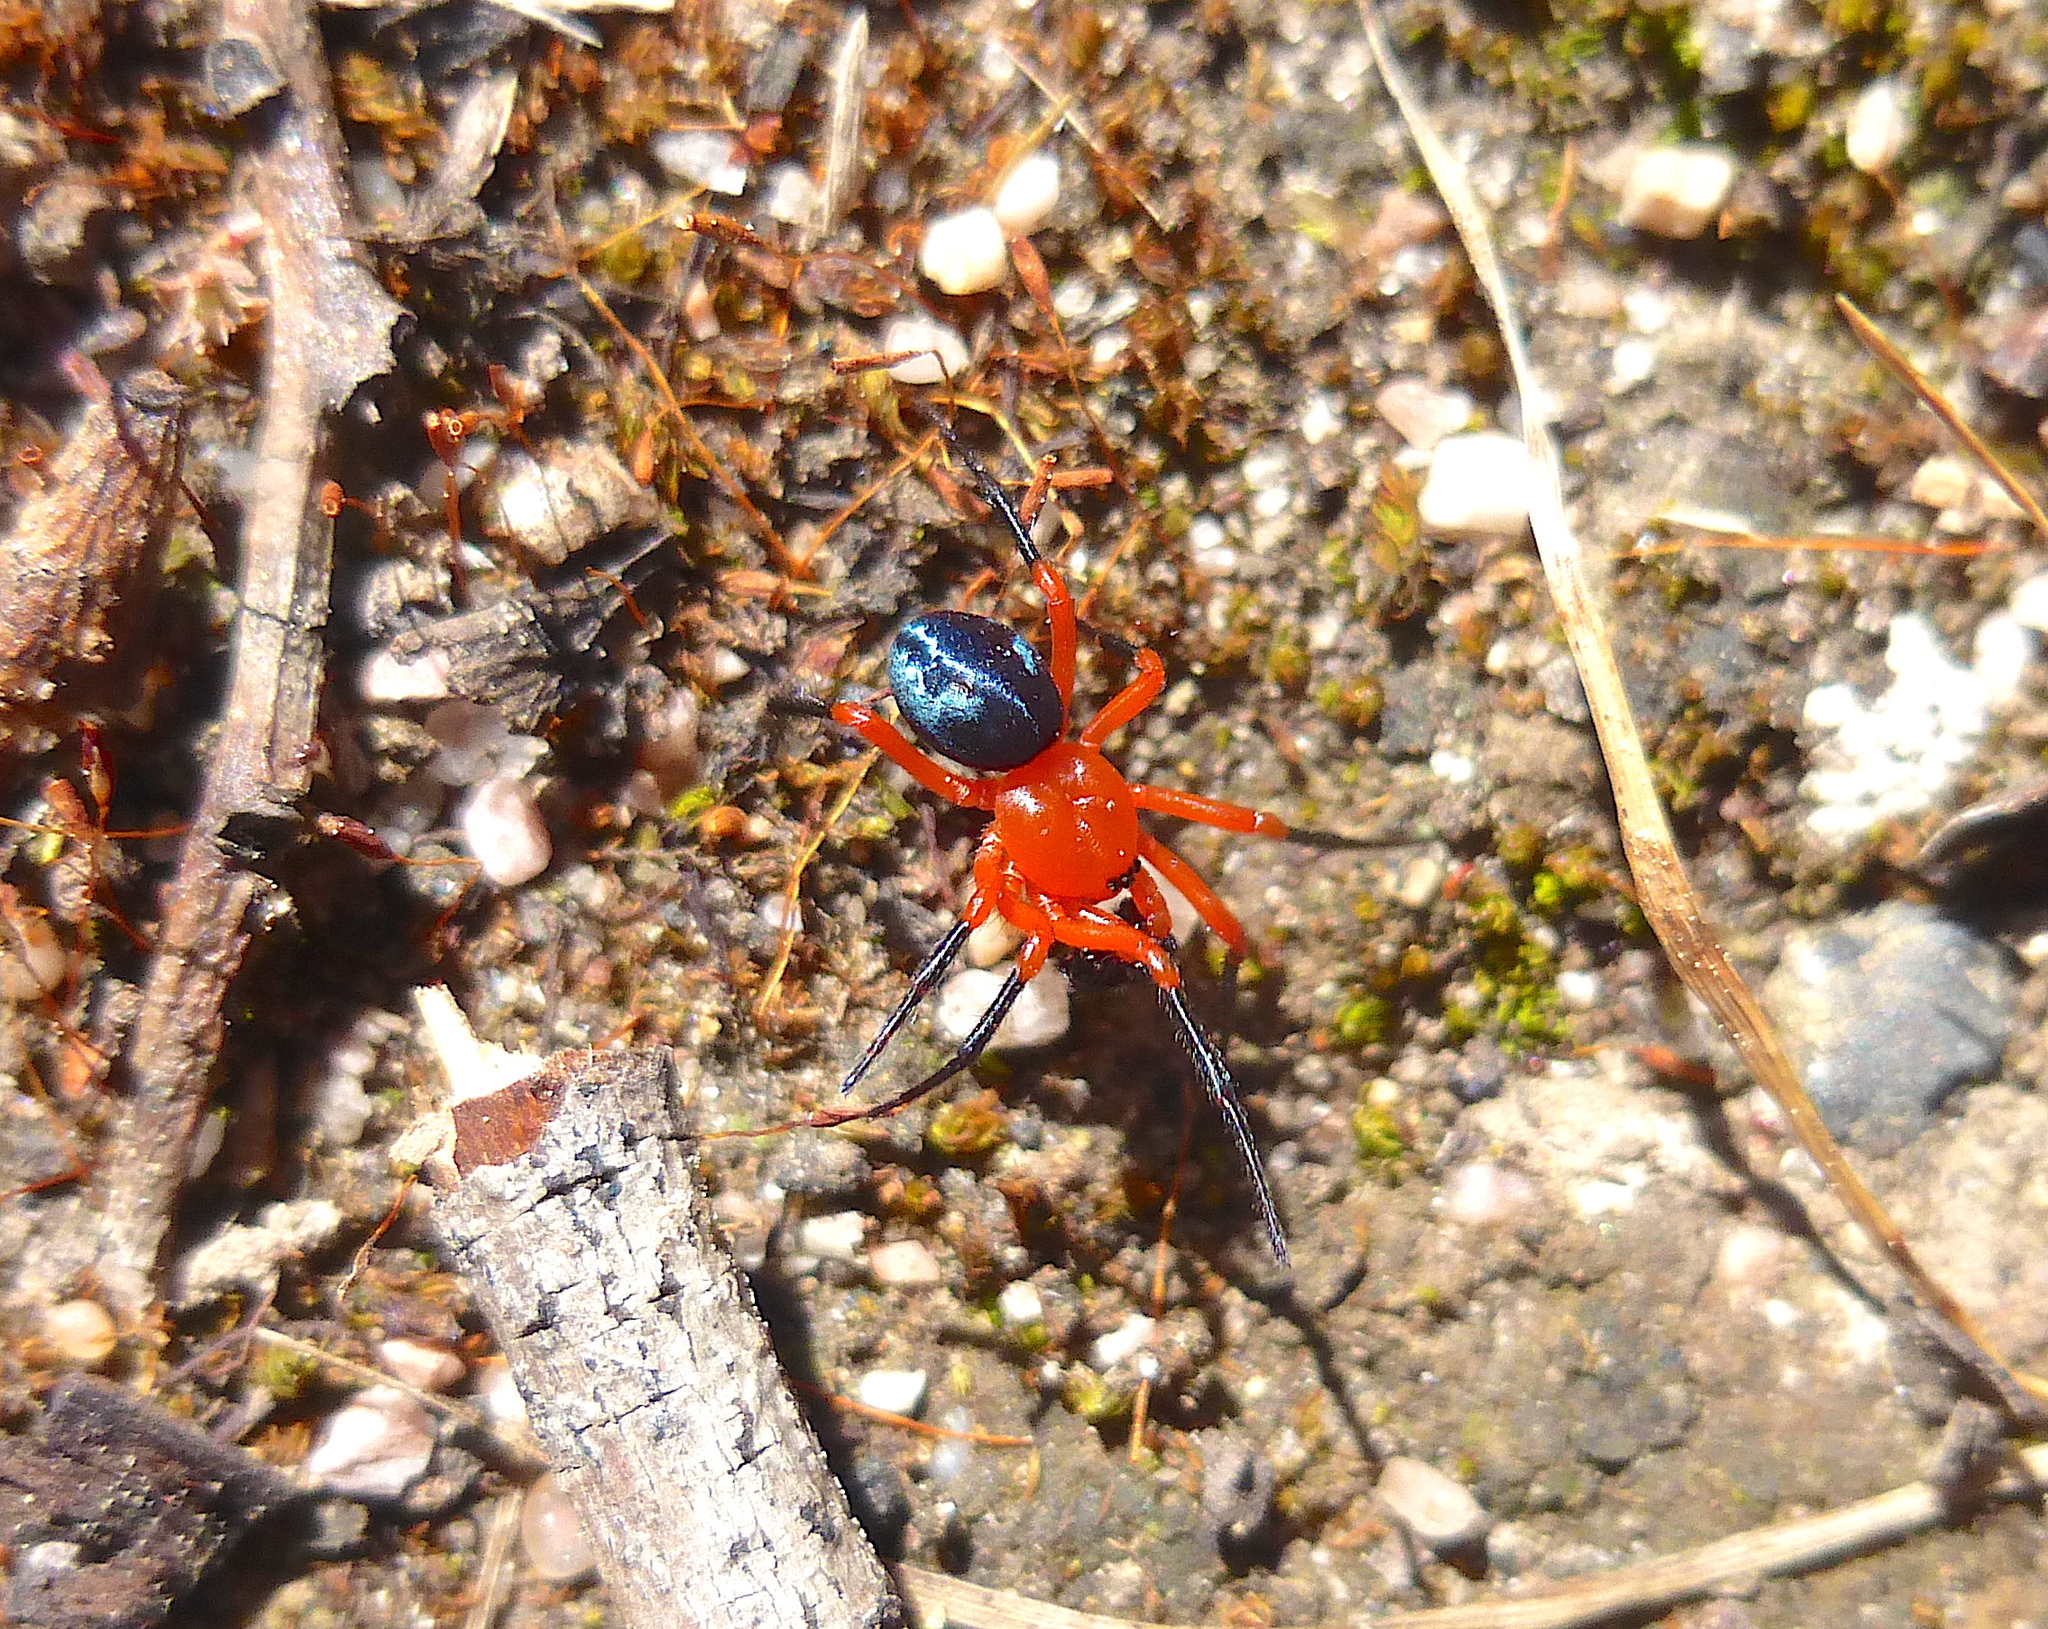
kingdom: Animalia
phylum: Arthropoda
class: Arachnida
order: Araneae
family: Nicodamidae
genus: Ambicodamus
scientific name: Ambicodamus crinitus
